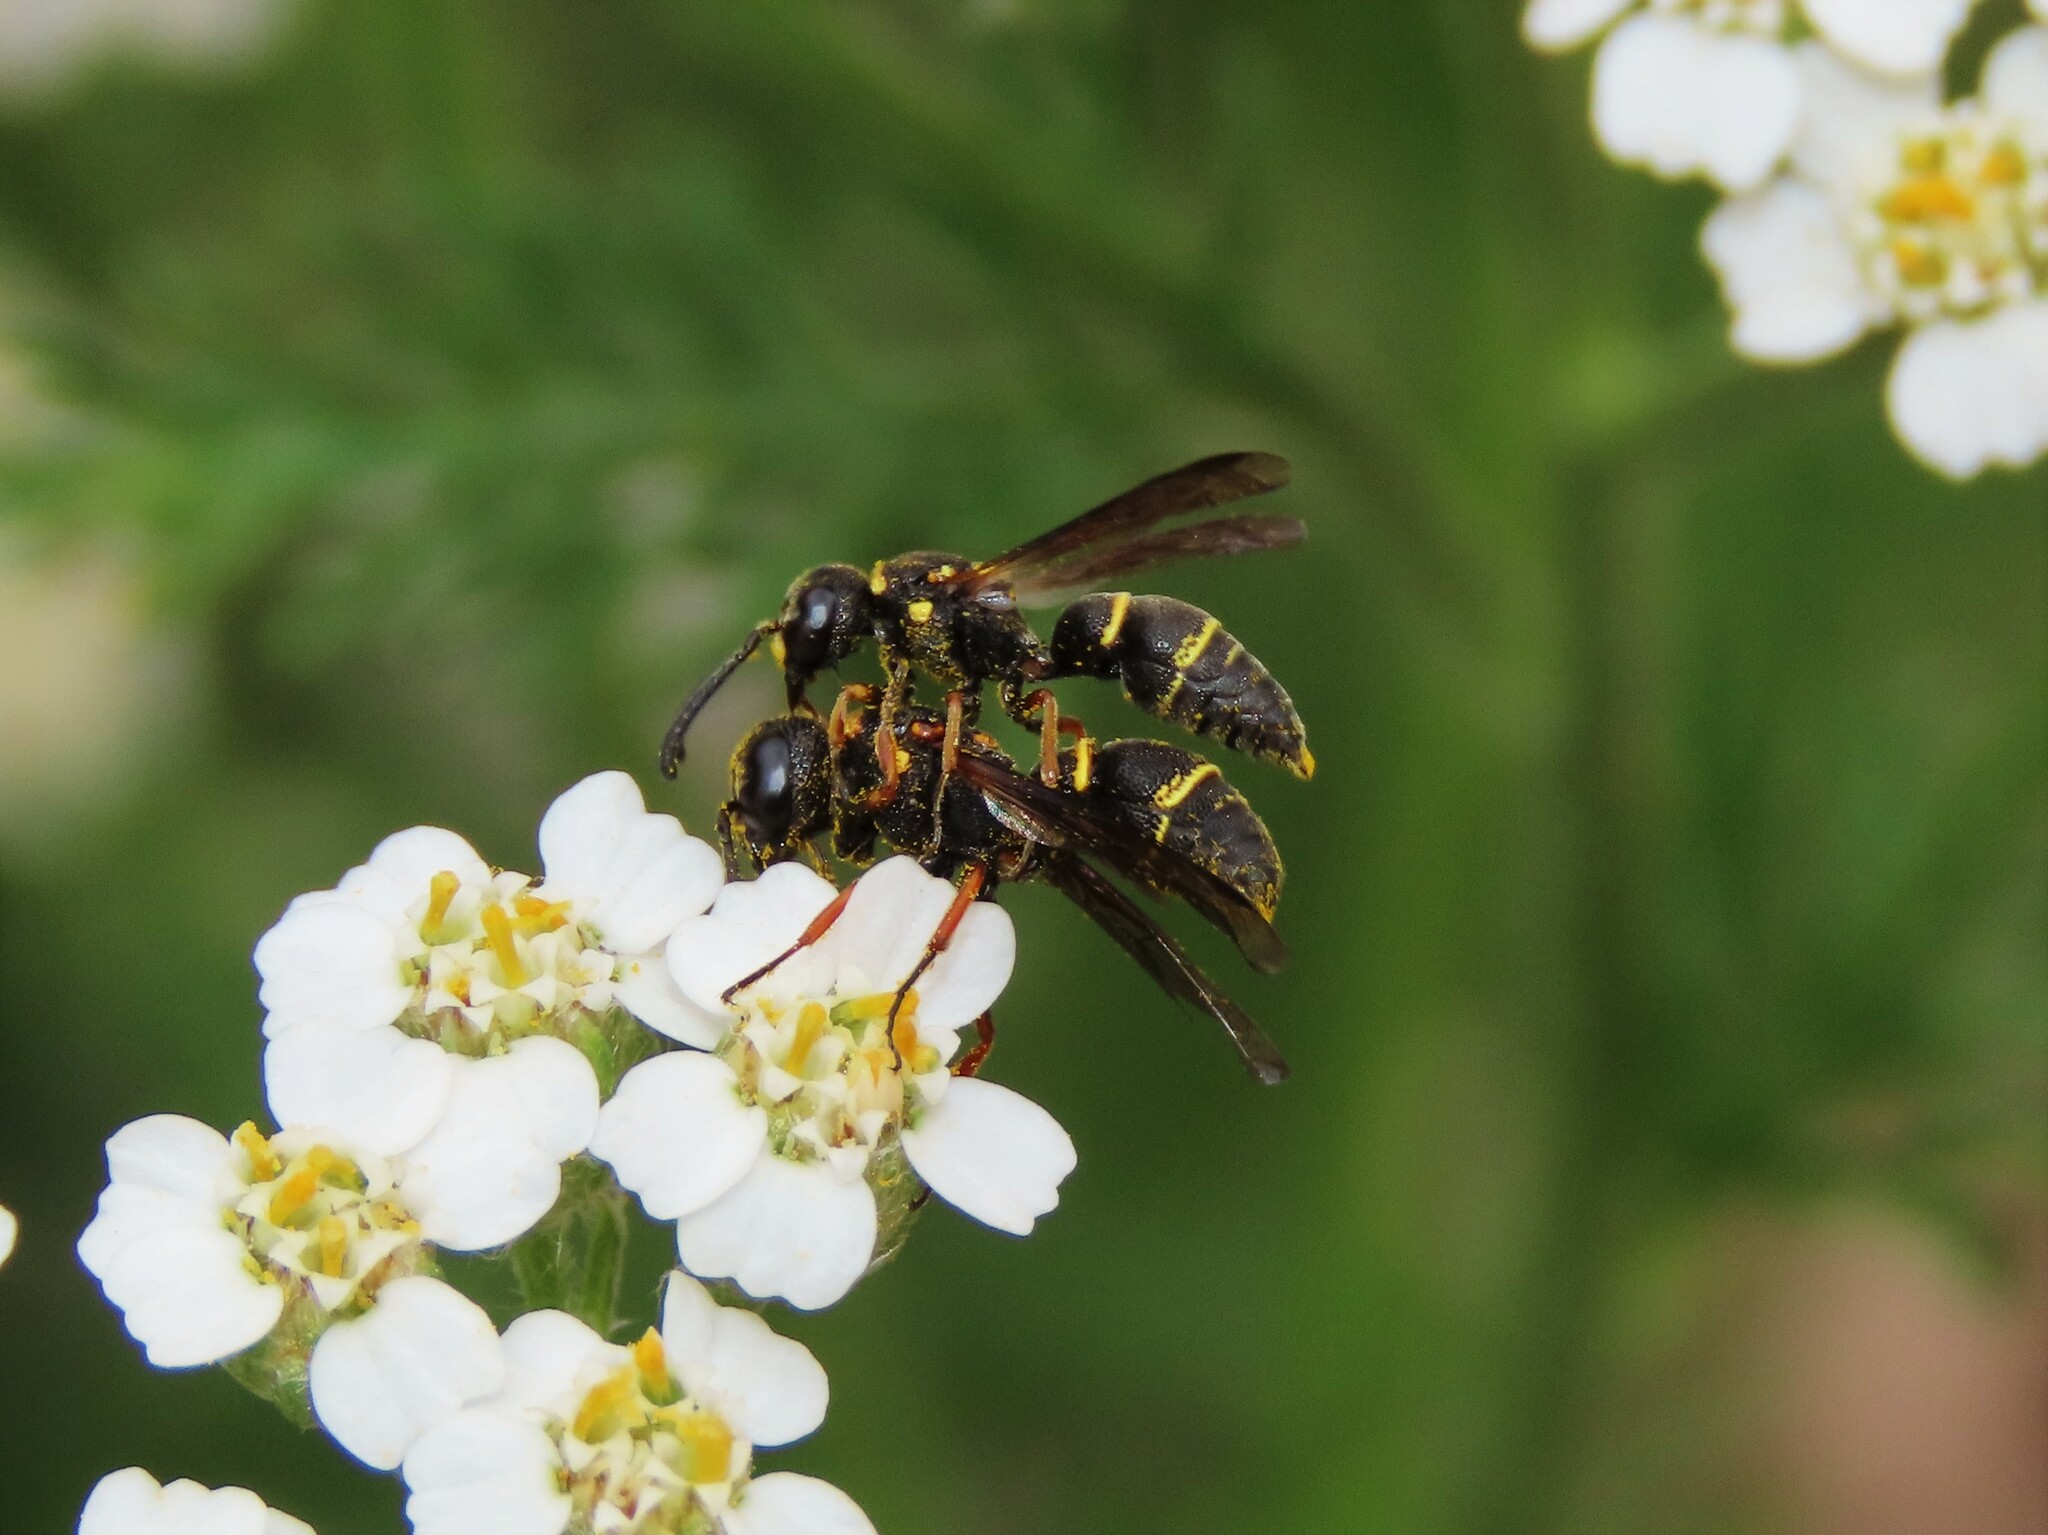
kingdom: Animalia
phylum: Arthropoda
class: Insecta
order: Hymenoptera
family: Eumenidae
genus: Parancistrocerus
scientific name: Parancistrocerus perennis
